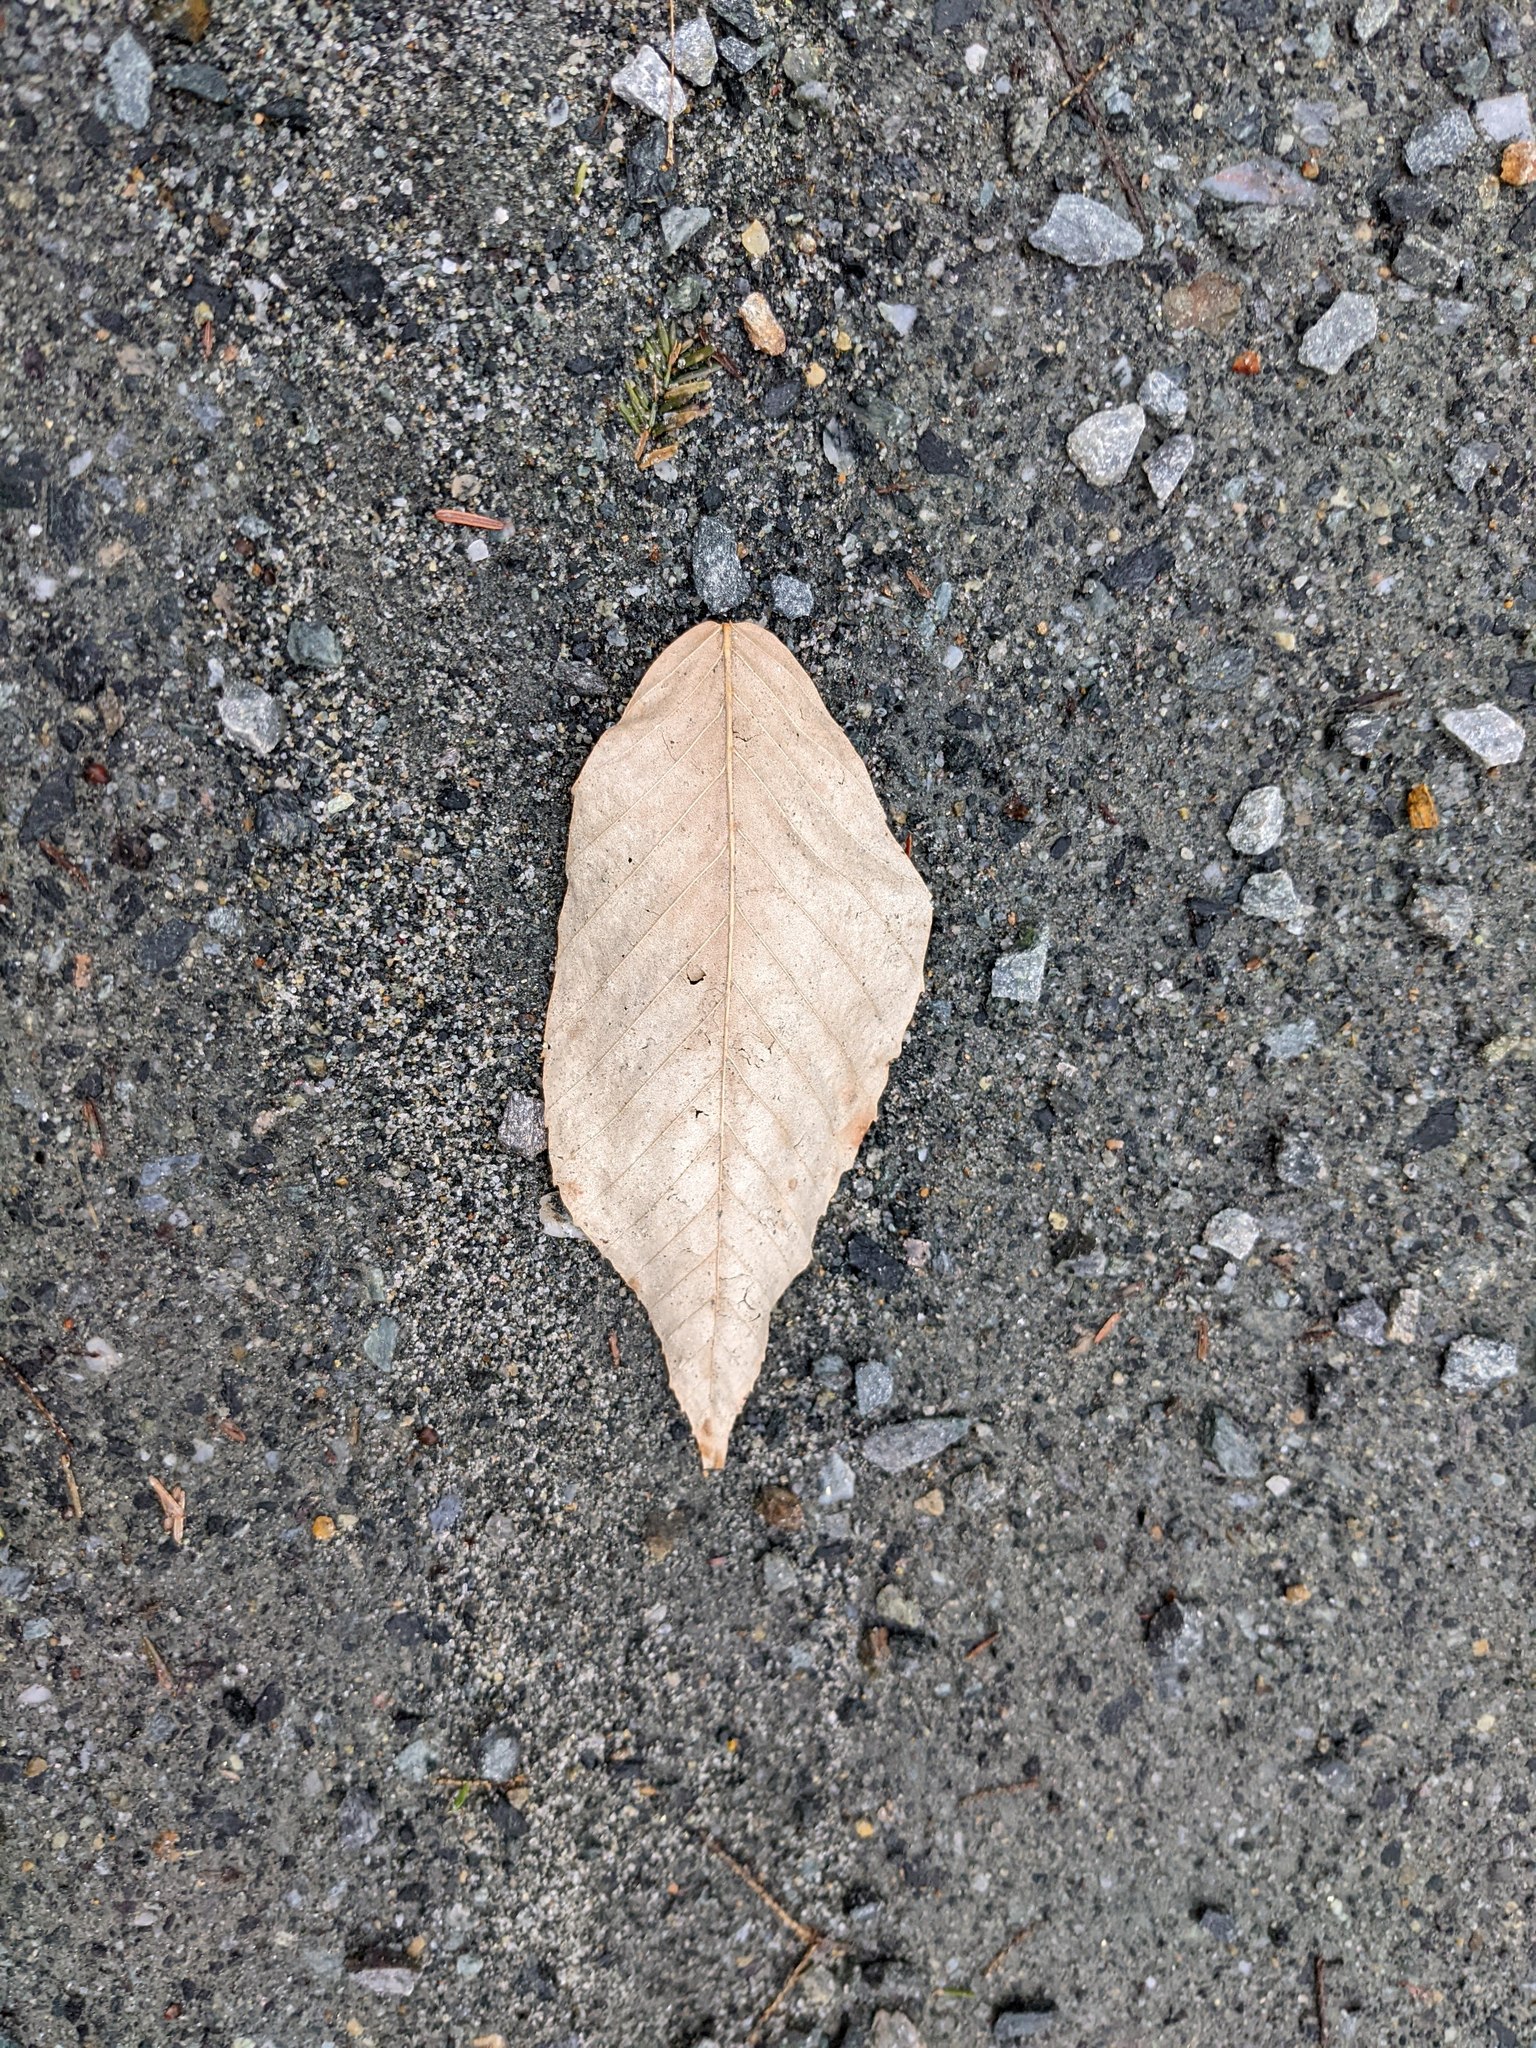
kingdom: Plantae
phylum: Tracheophyta
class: Magnoliopsida
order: Fagales
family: Fagaceae
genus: Fagus
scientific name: Fagus grandifolia
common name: American beech
